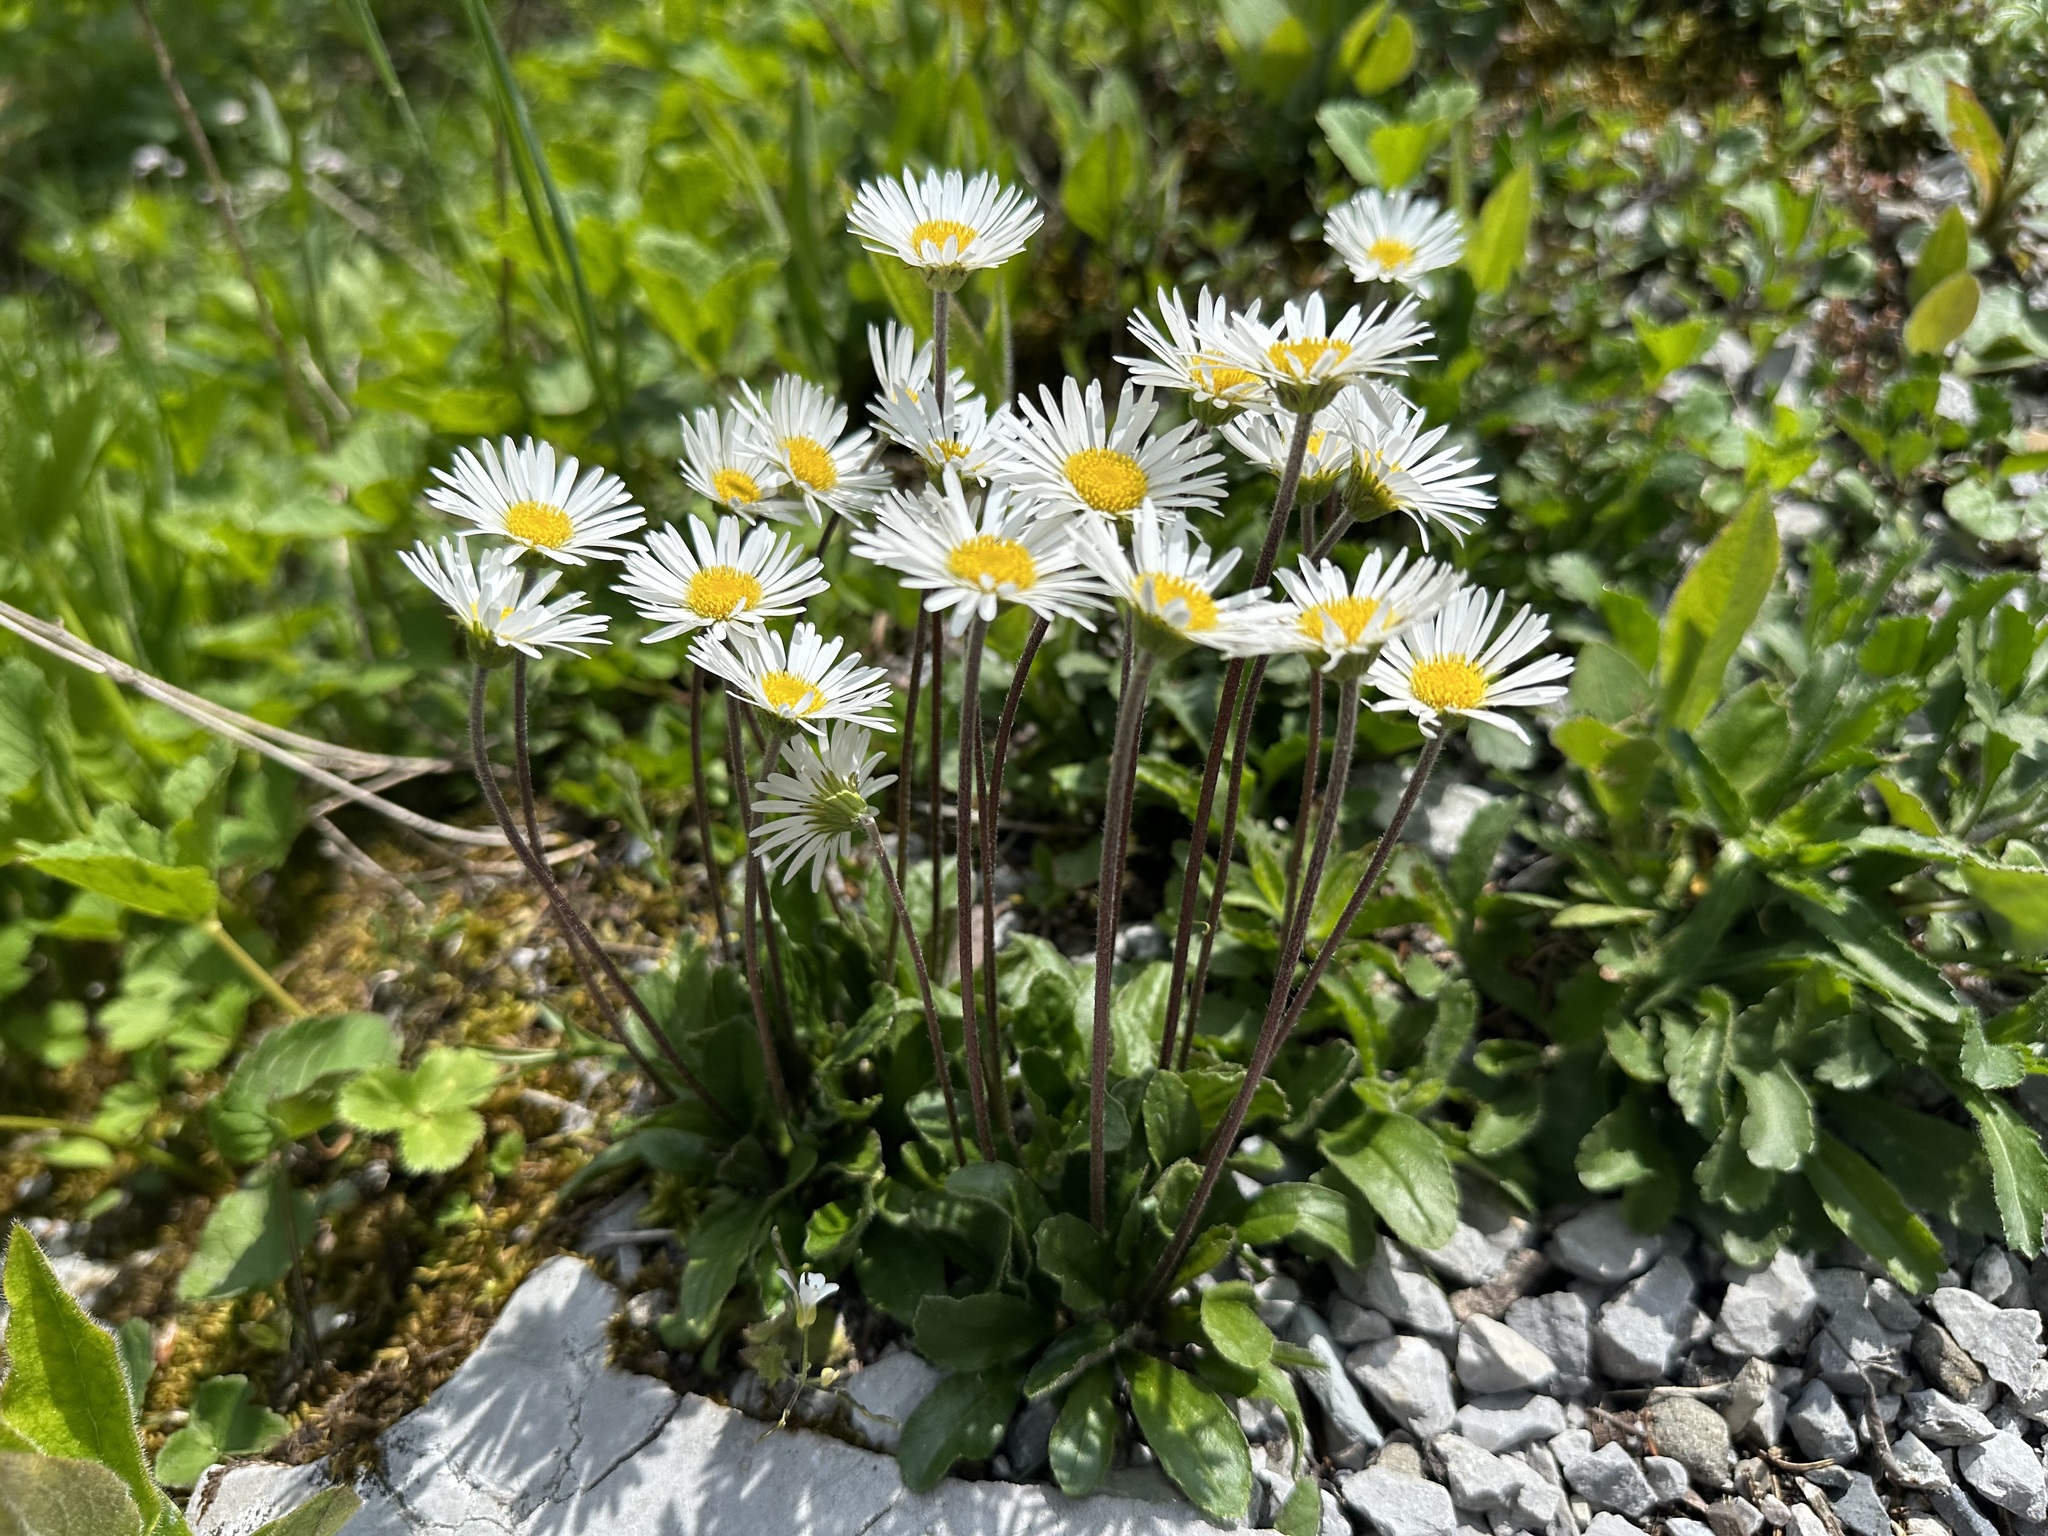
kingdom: Plantae
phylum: Tracheophyta
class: Magnoliopsida
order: Asterales
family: Asteraceae
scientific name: Asteraceae
